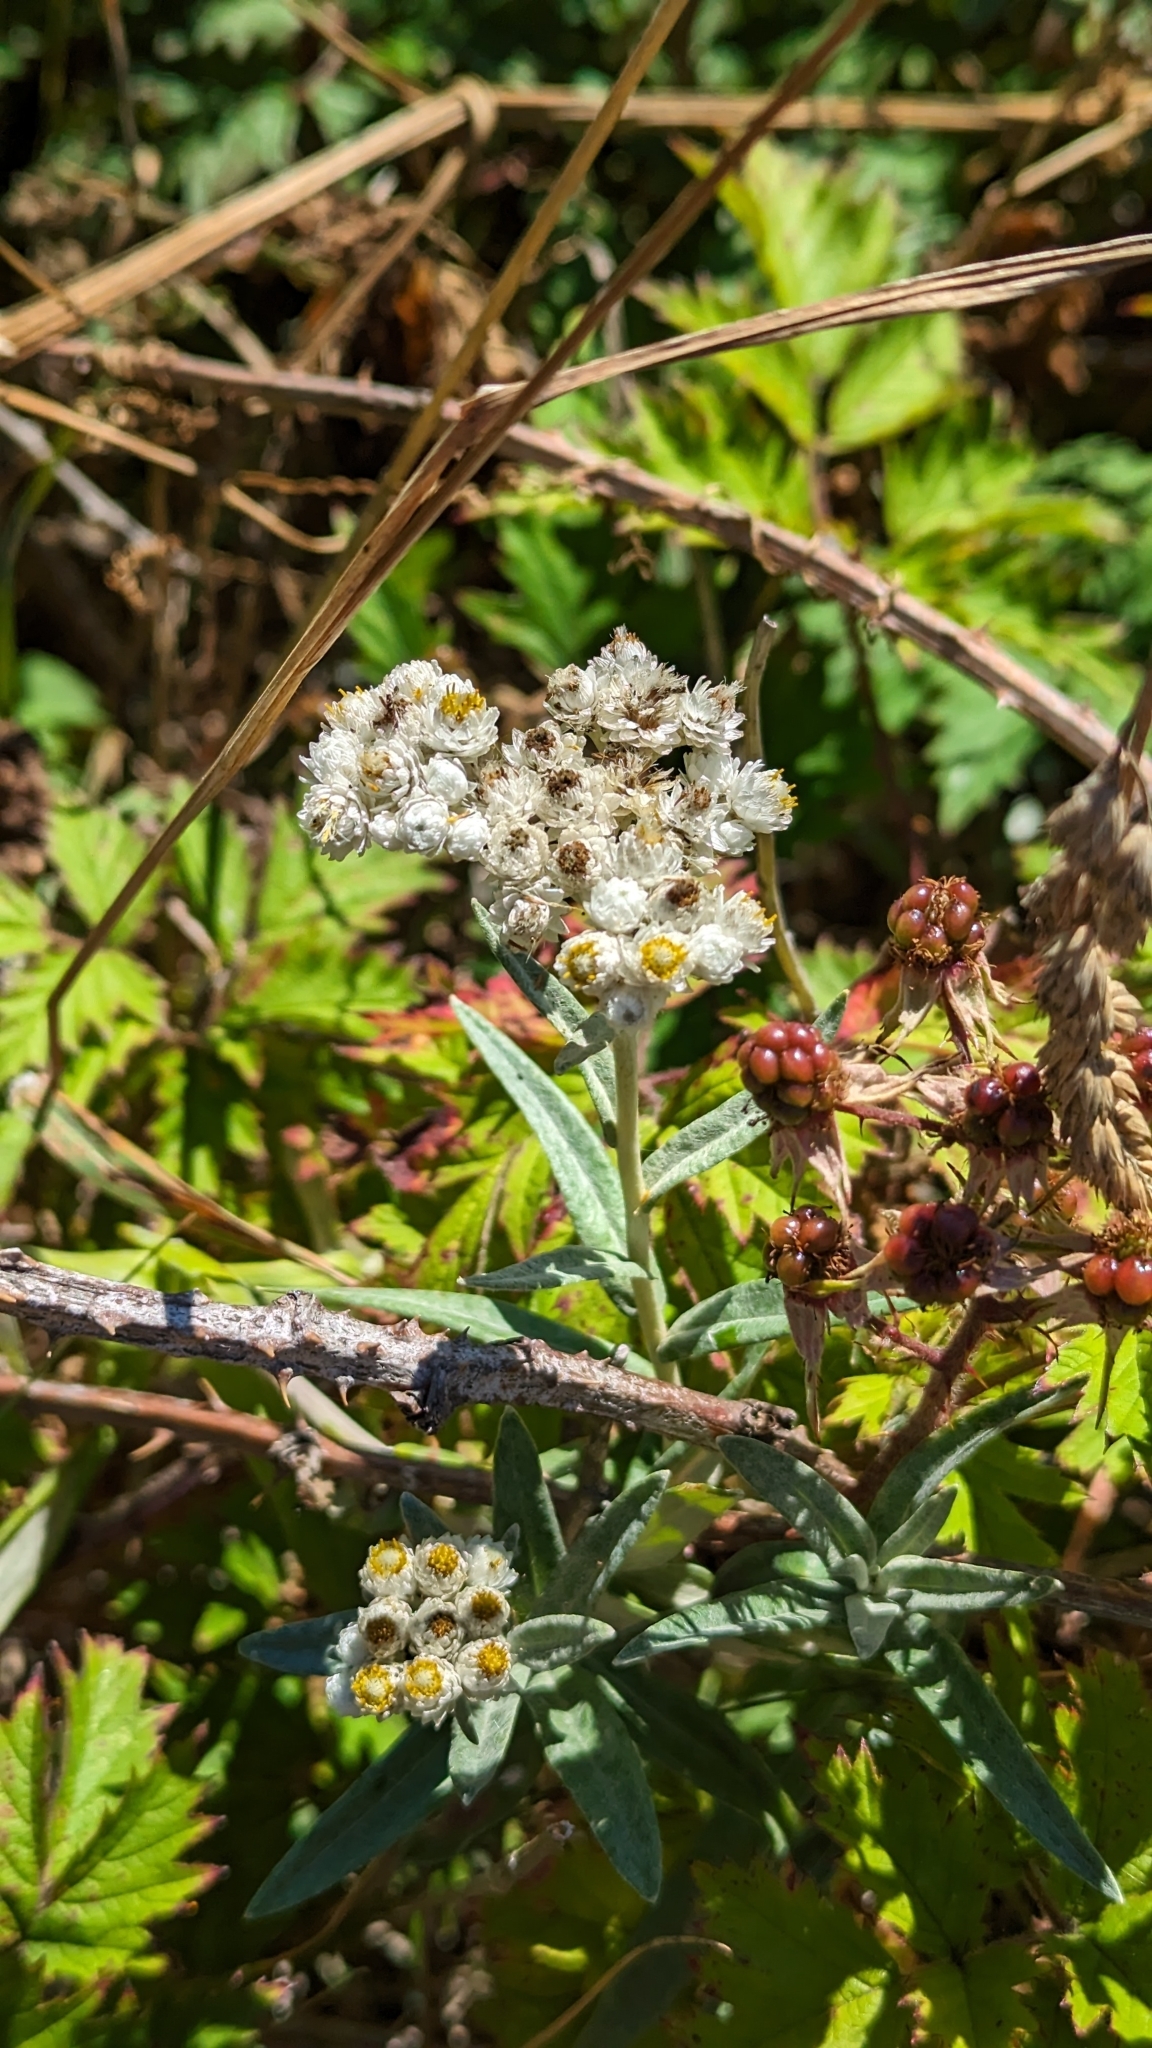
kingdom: Plantae
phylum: Tracheophyta
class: Magnoliopsida
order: Asterales
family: Asteraceae
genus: Anaphalis
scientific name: Anaphalis margaritacea
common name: Pearly everlasting
